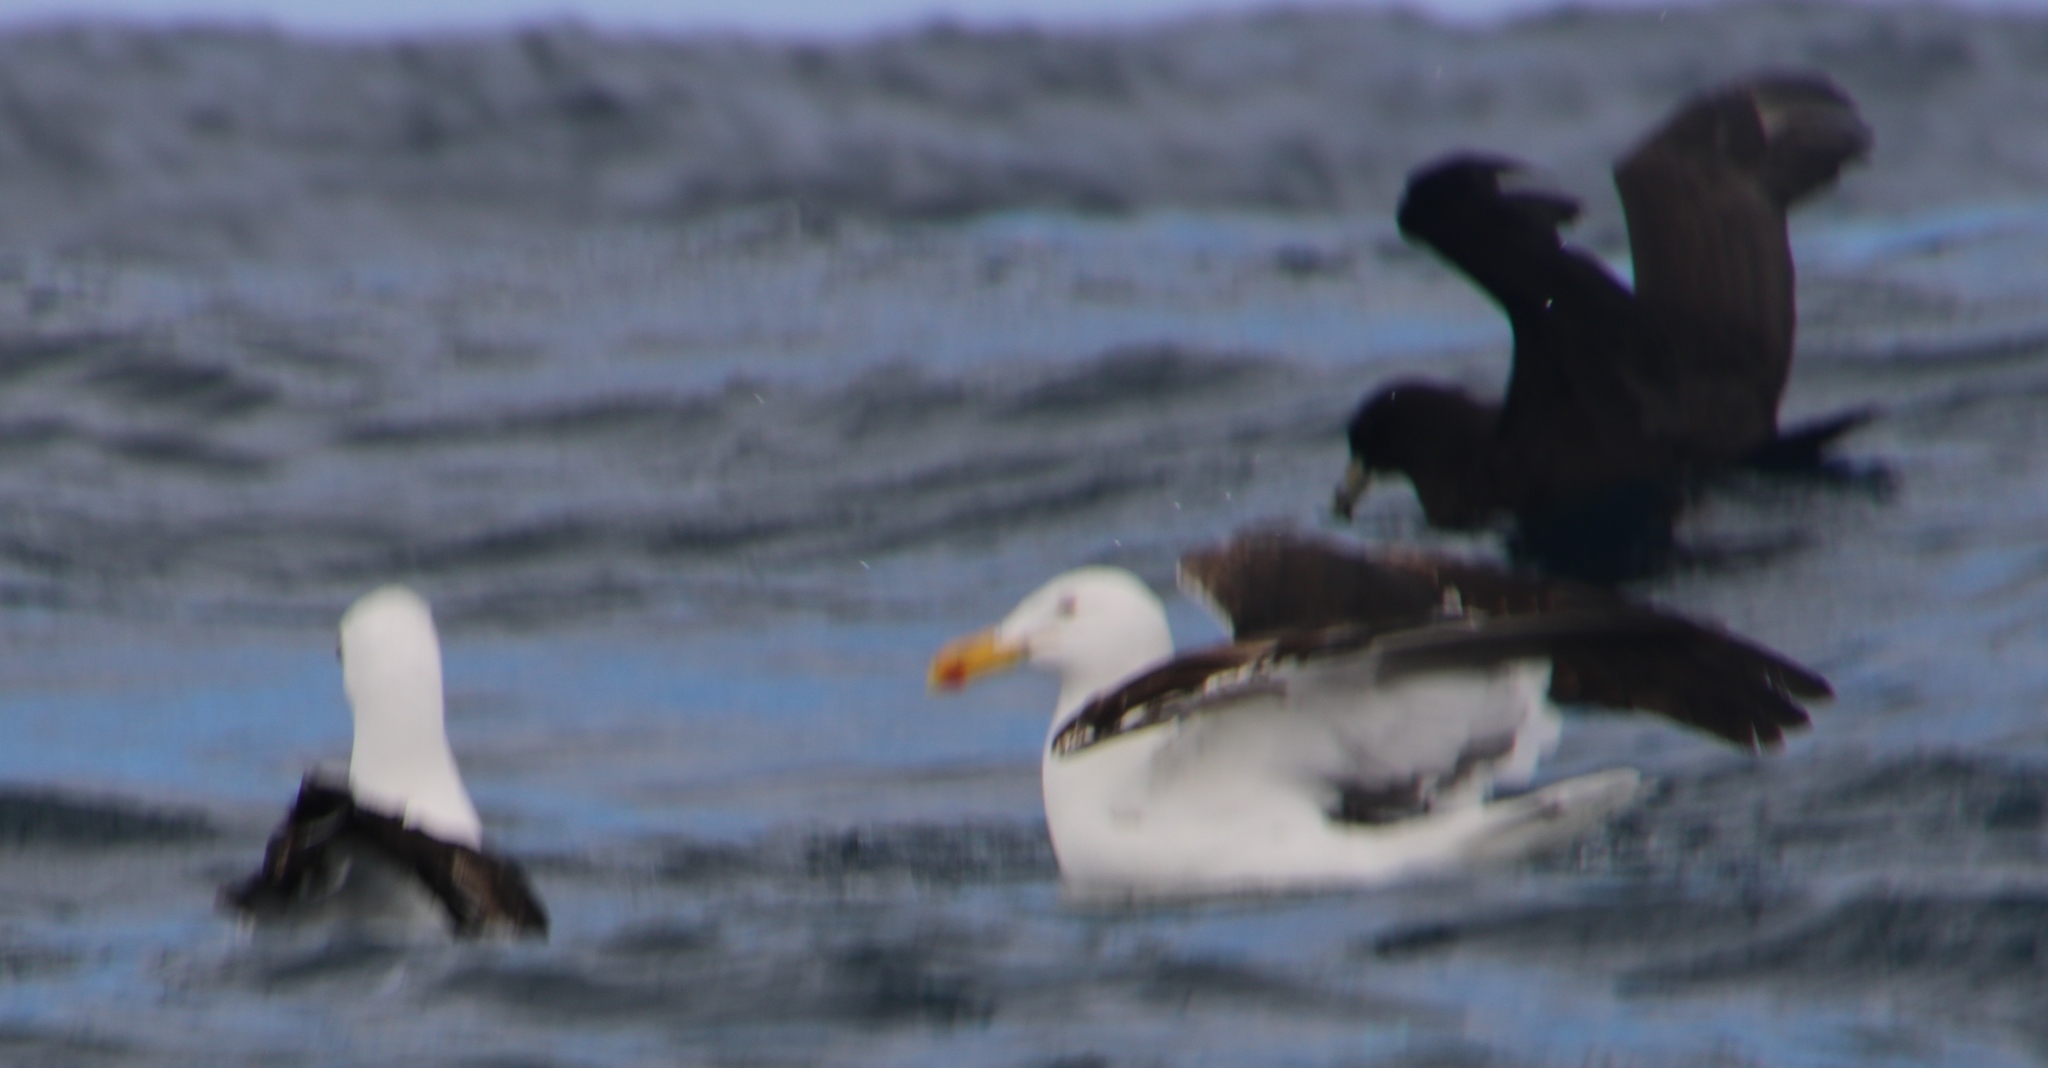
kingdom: Animalia
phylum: Chordata
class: Aves
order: Charadriiformes
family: Laridae
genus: Larus
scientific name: Larus dominicanus
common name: Kelp gull
